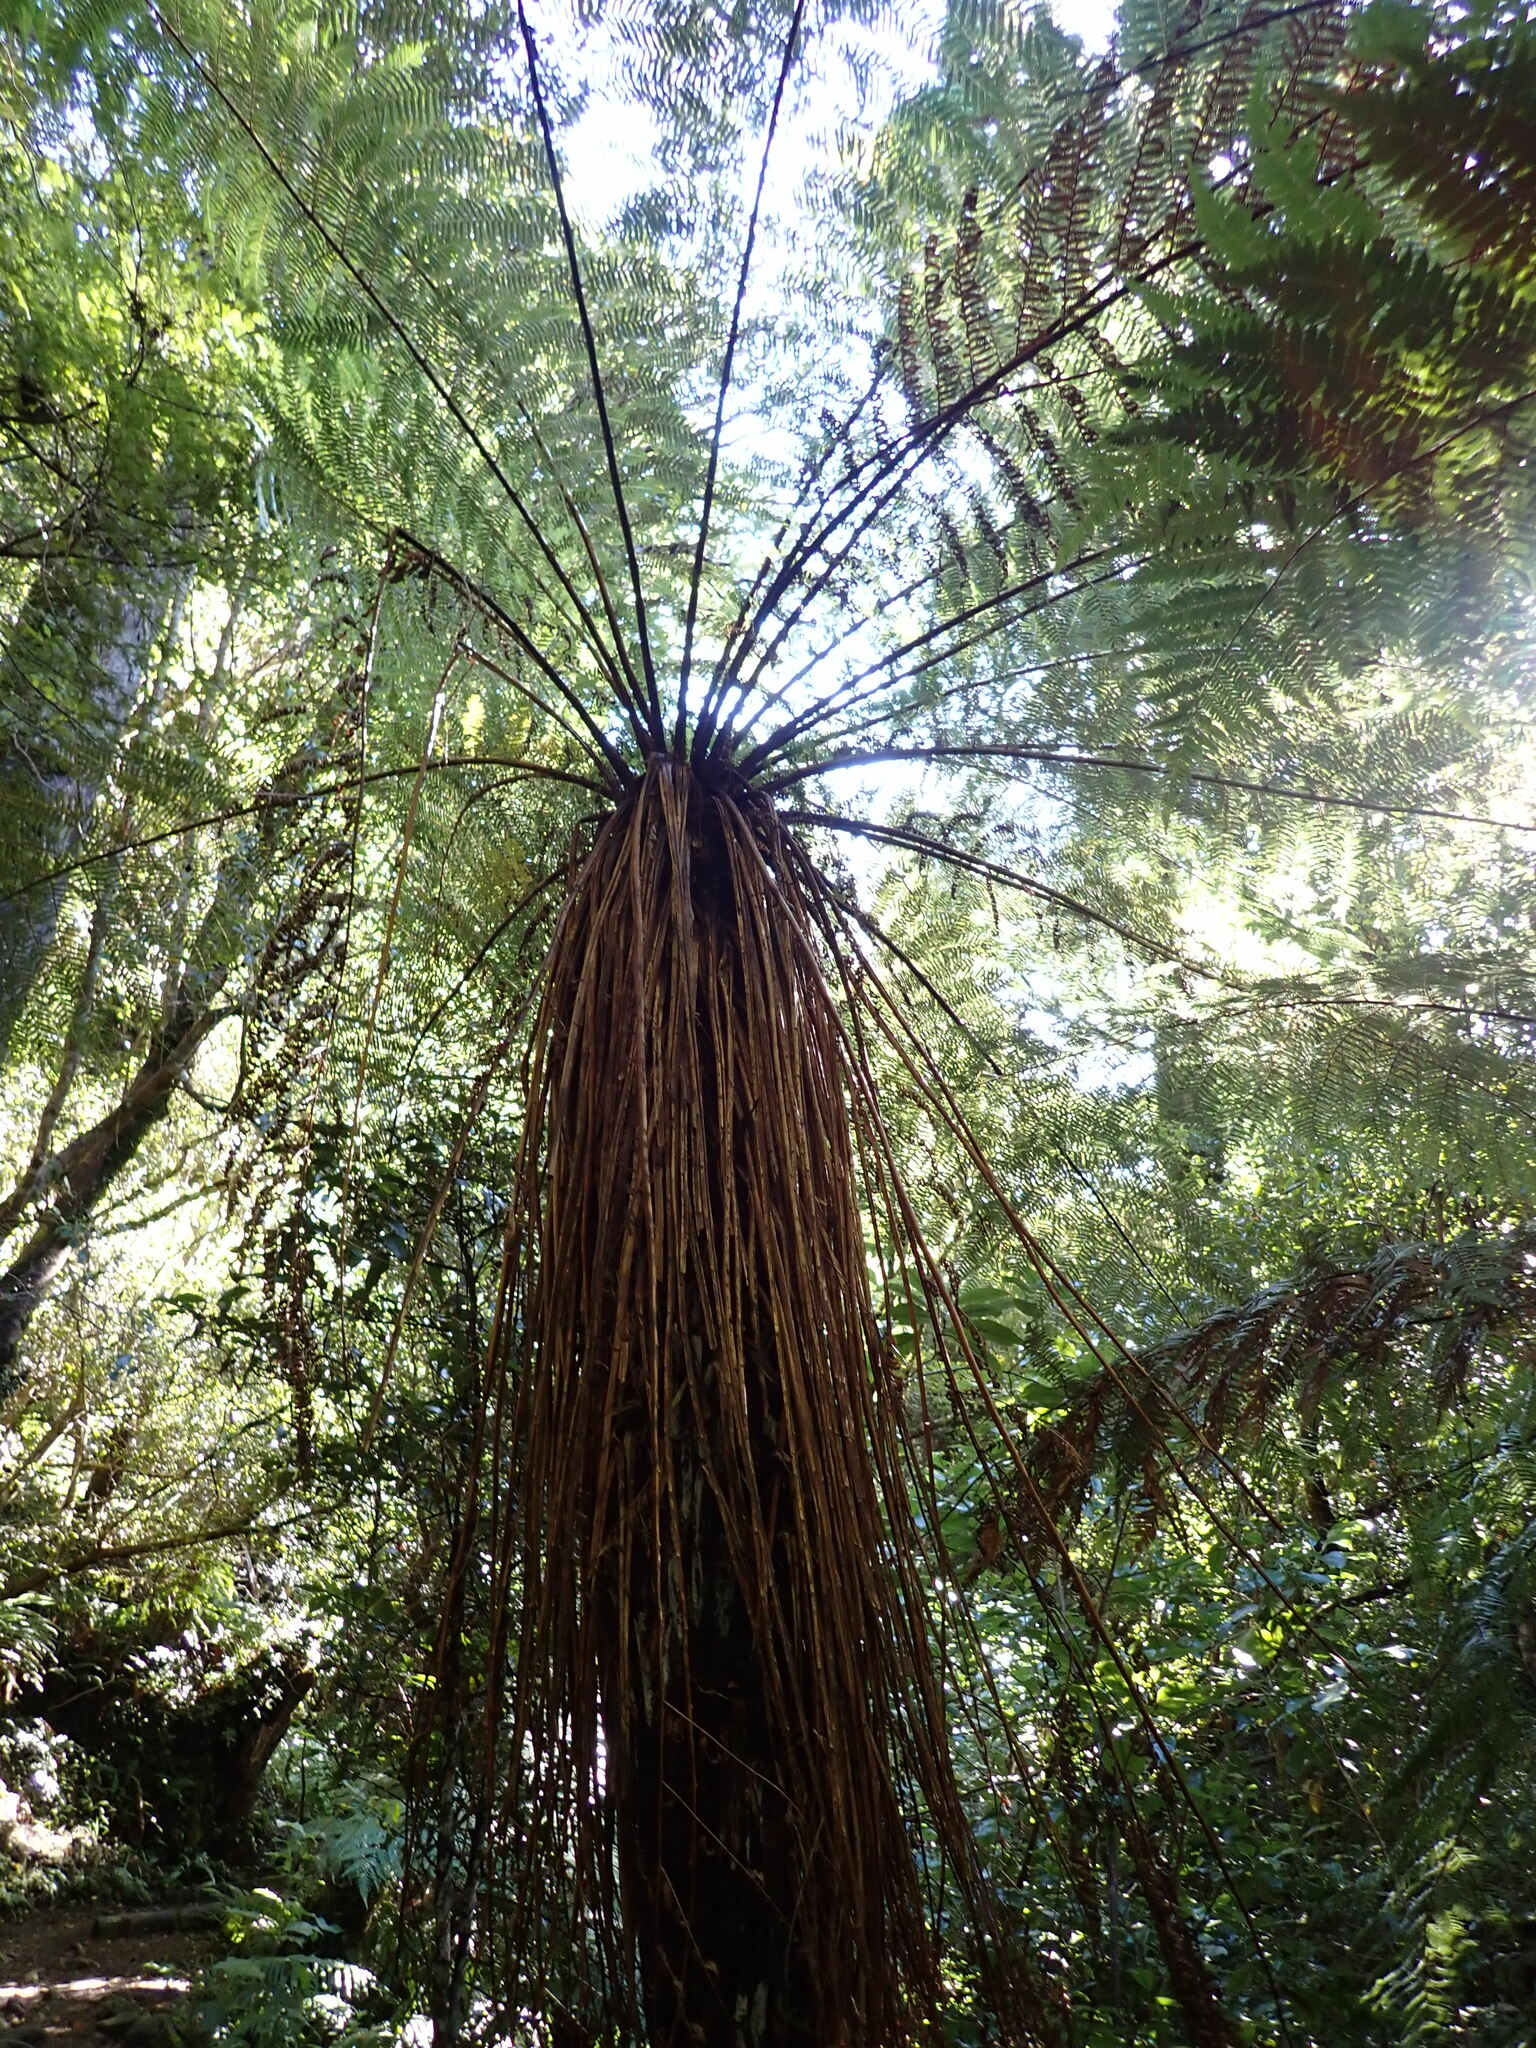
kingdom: Plantae
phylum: Tracheophyta
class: Polypodiopsida
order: Cyatheales
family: Cyatheaceae
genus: Alsophila
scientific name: Alsophila smithii
